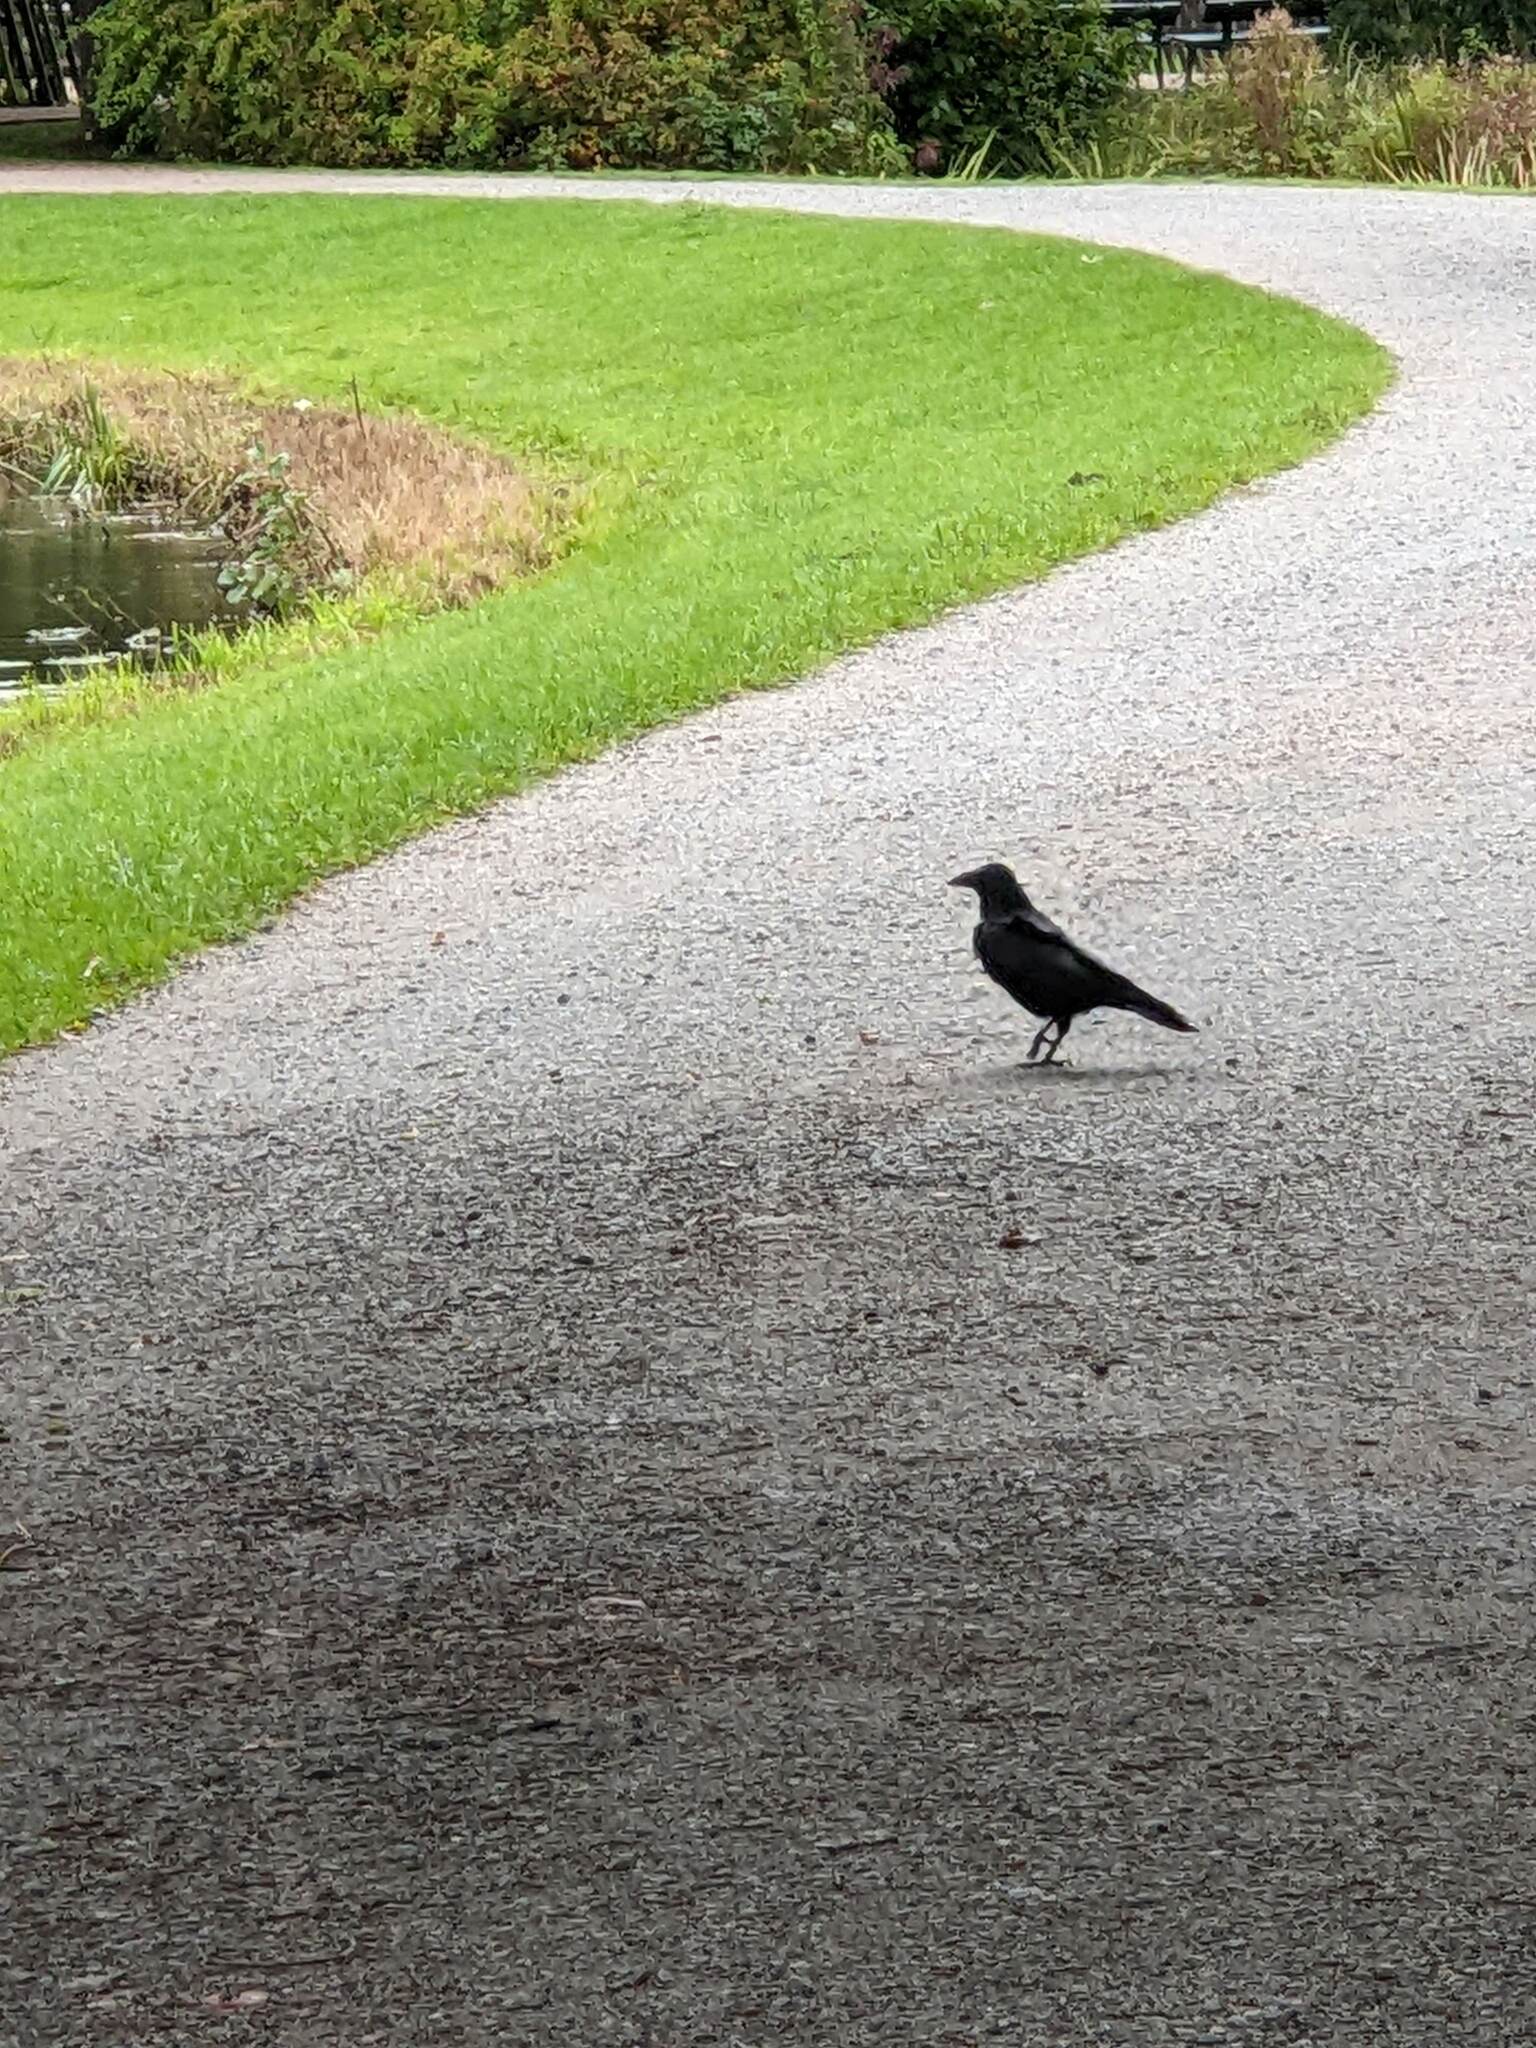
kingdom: Animalia
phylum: Chordata
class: Aves
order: Passeriformes
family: Corvidae
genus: Corvus
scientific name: Corvus corone
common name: Carrion crow
